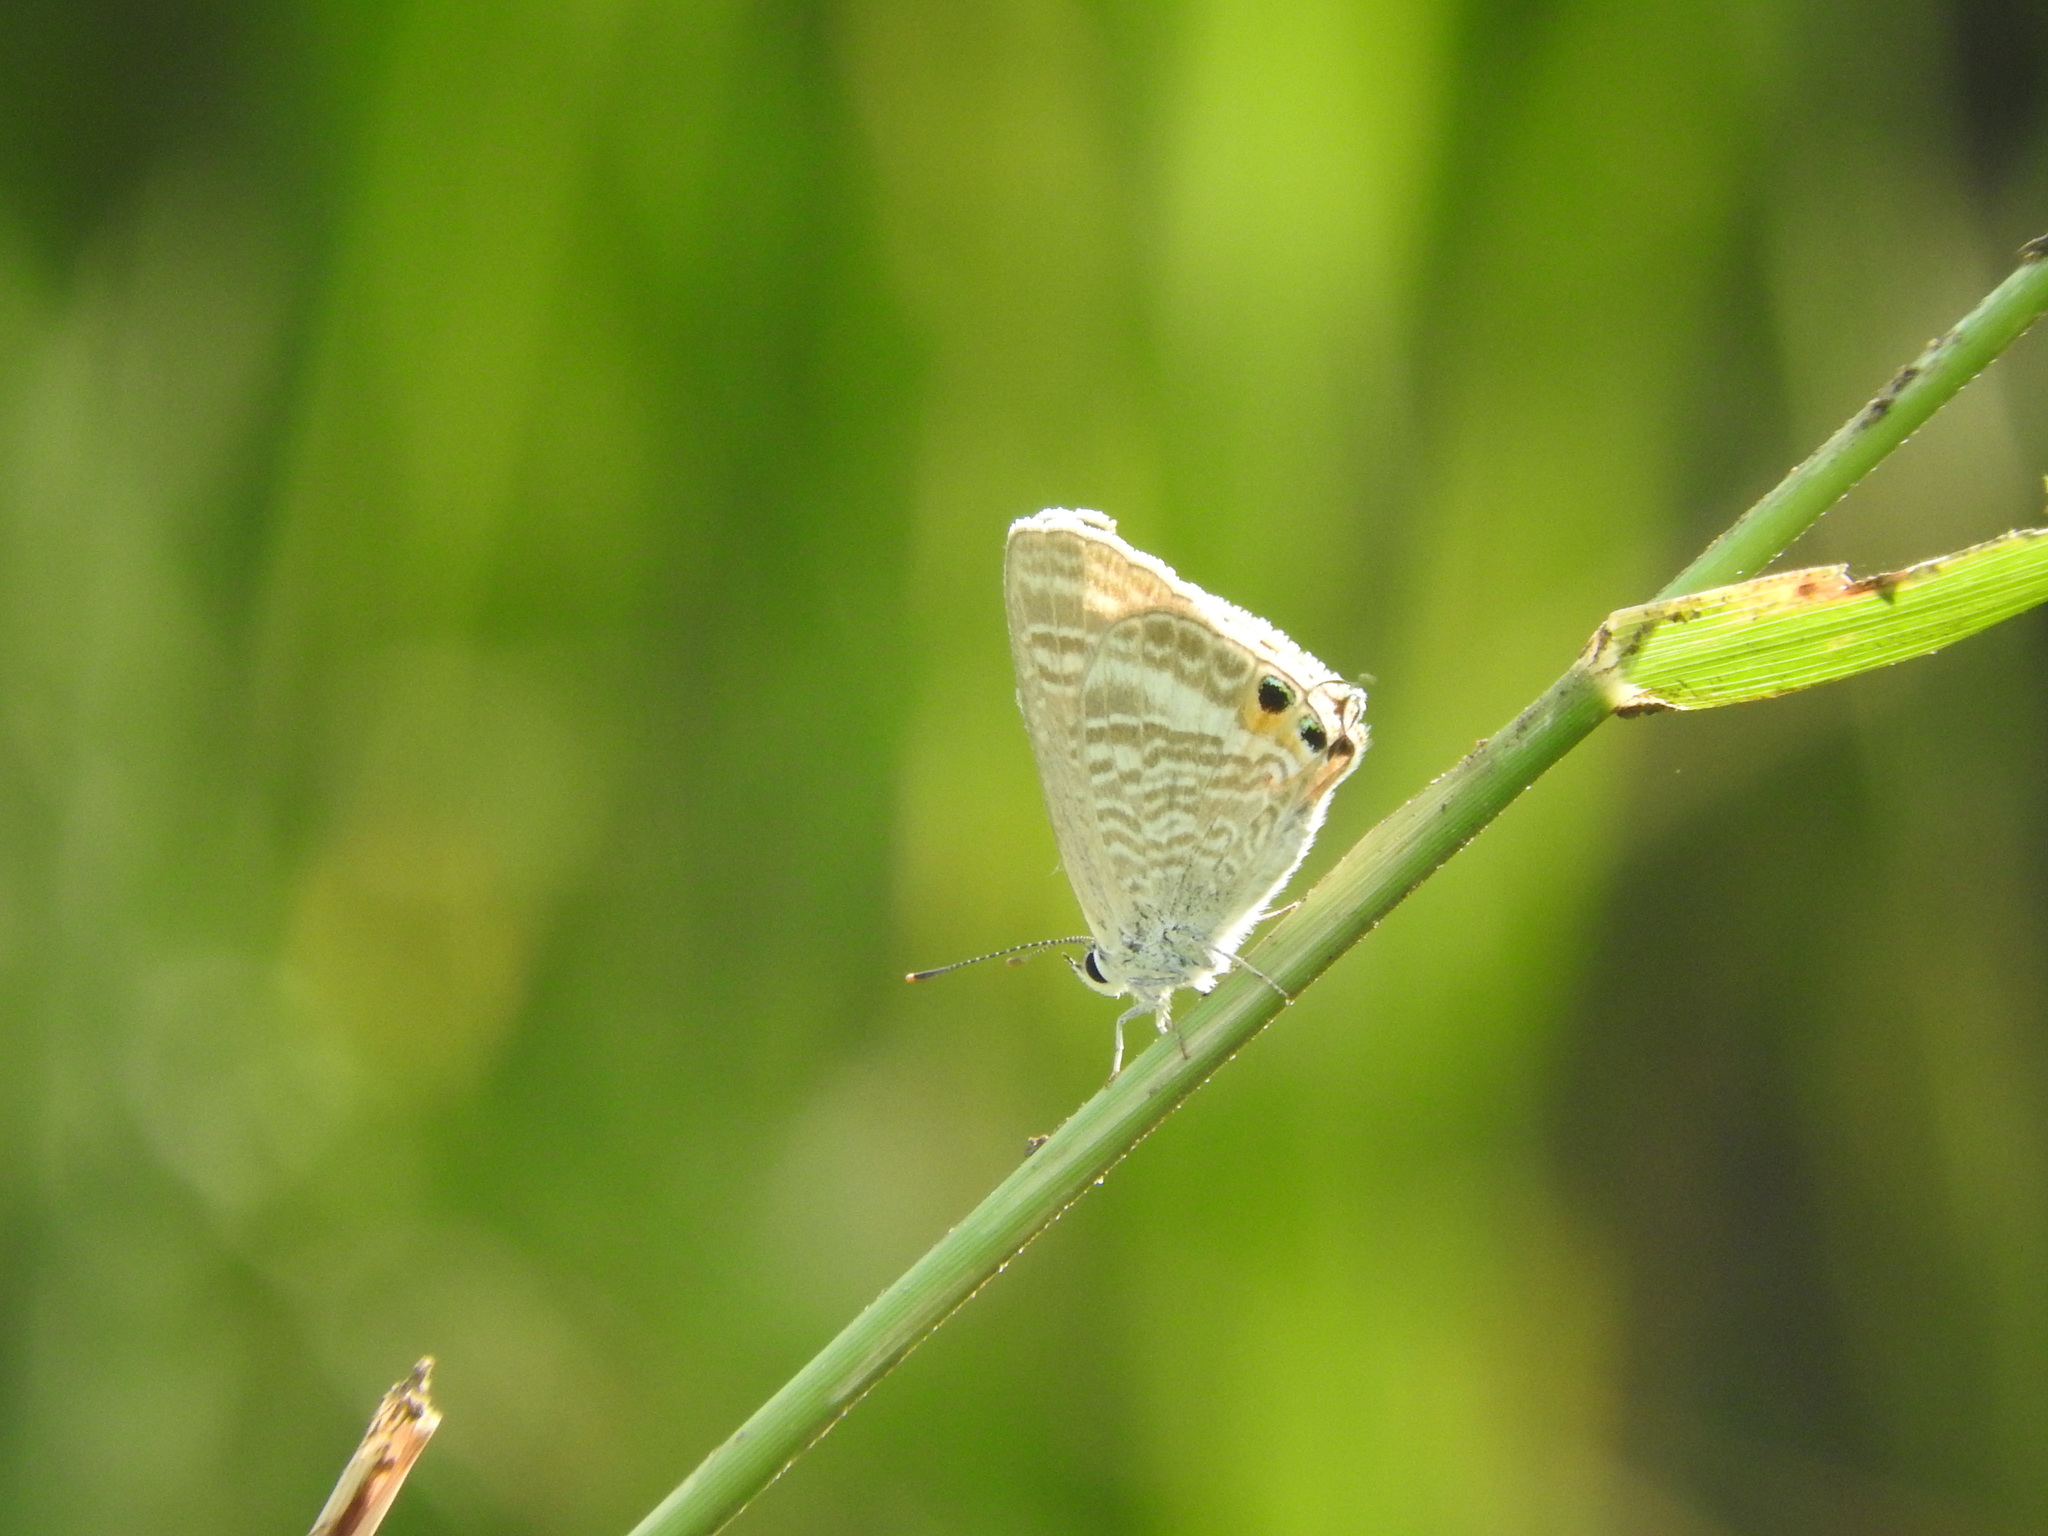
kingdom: Animalia
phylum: Arthropoda
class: Insecta
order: Lepidoptera
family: Lycaenidae
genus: Lampides
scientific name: Lampides boeticus
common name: Long-tailed blue
